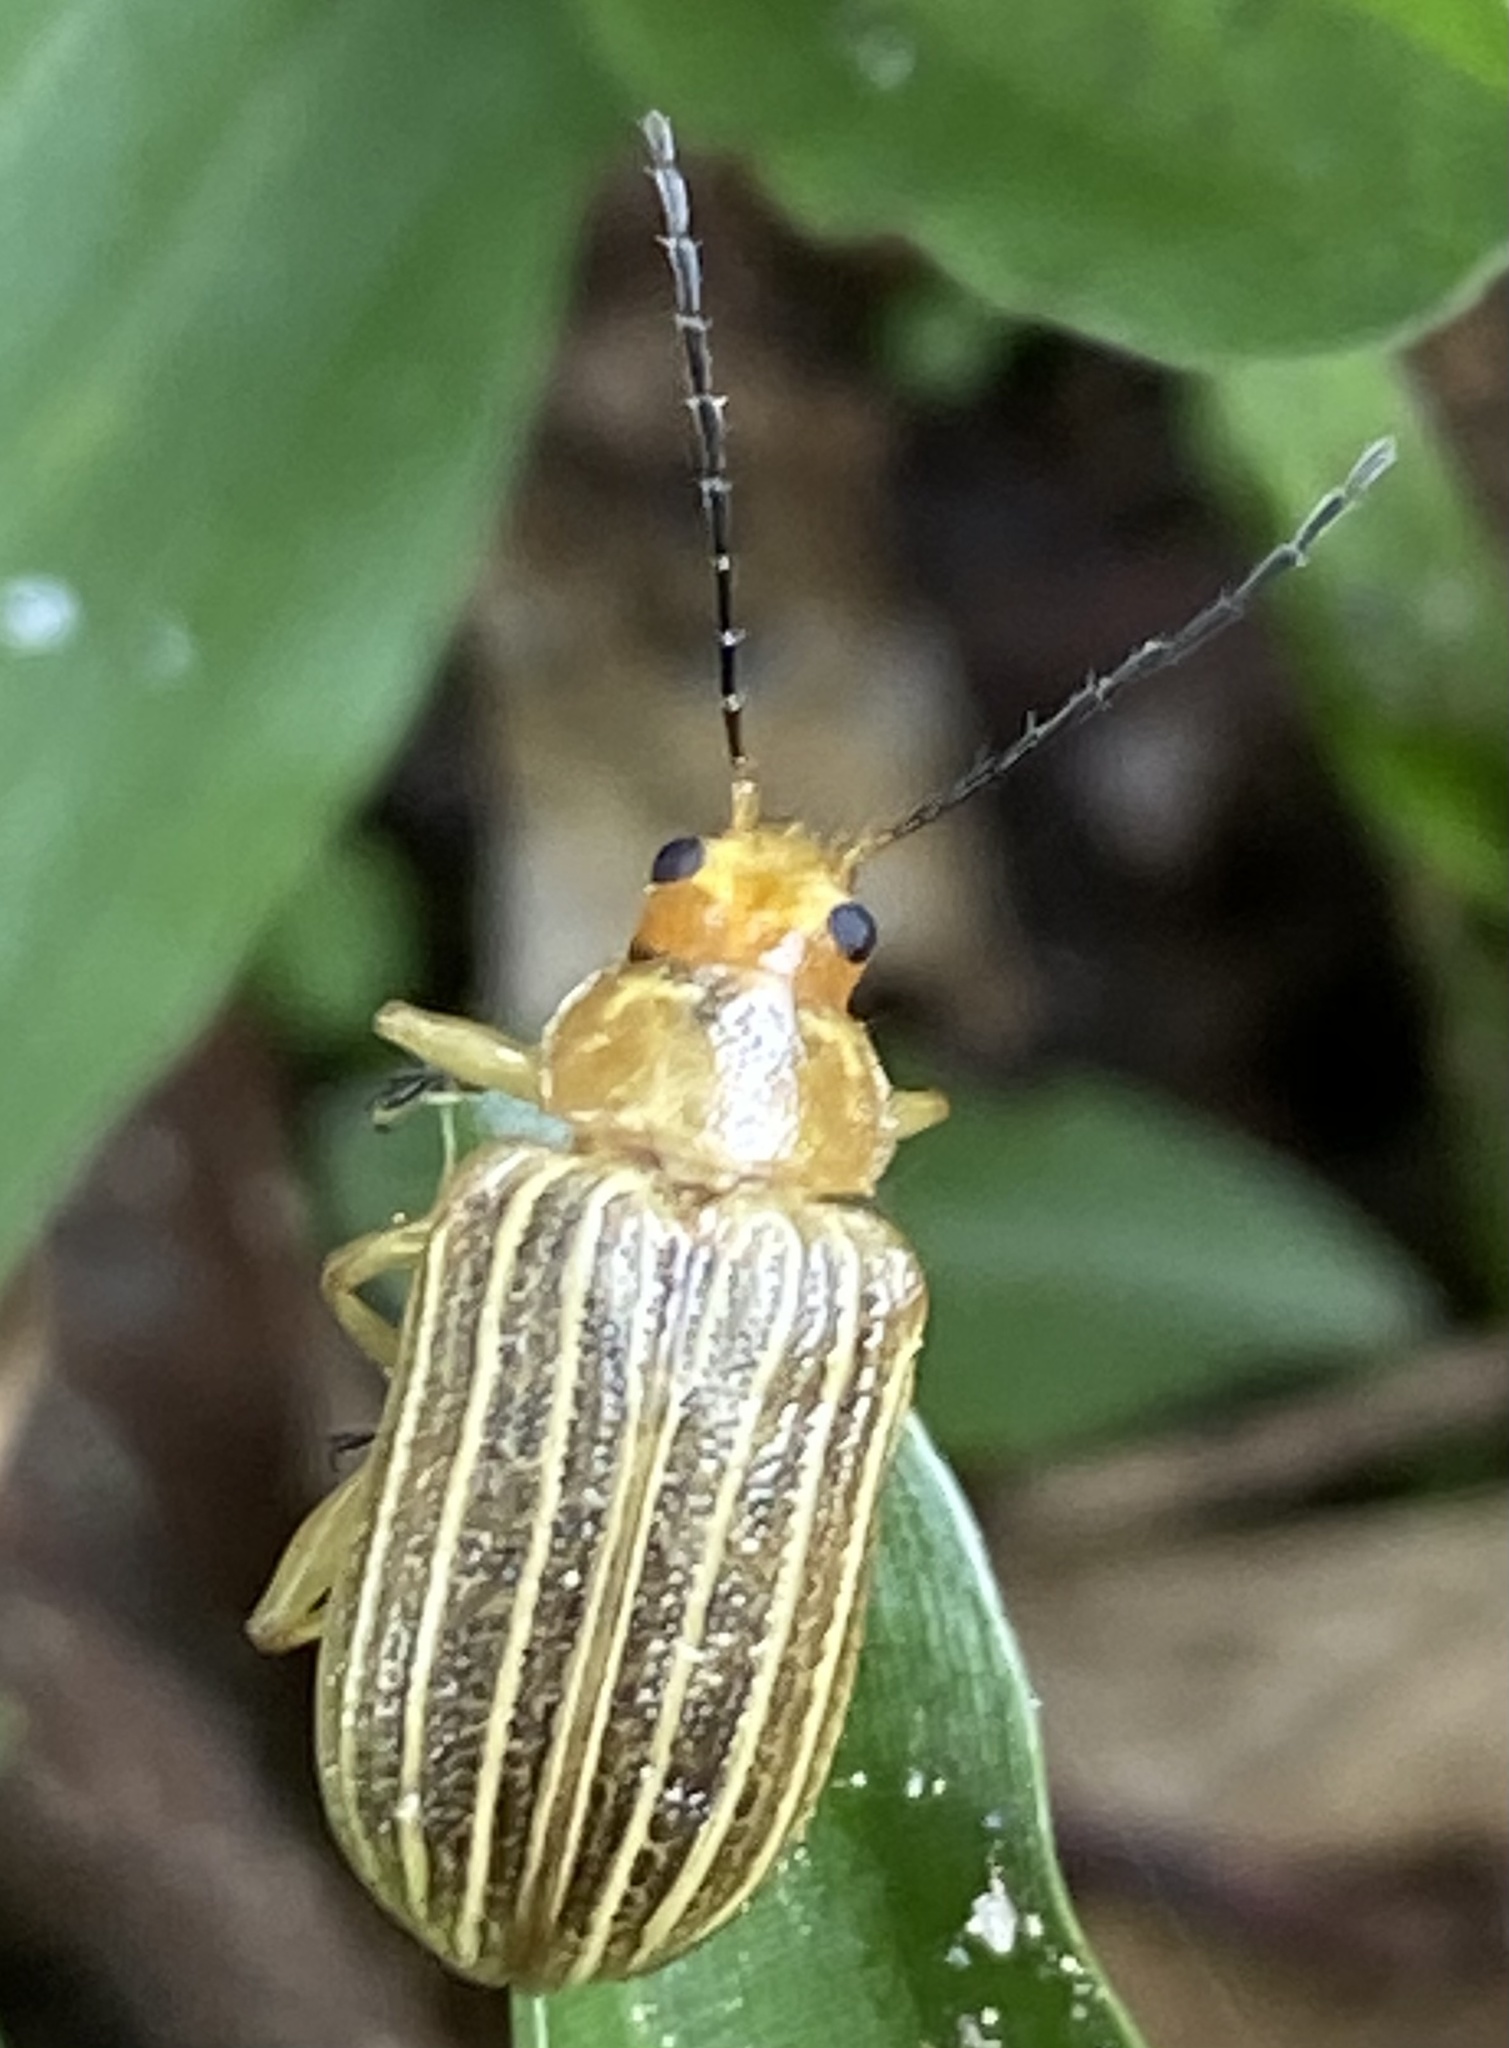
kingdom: Animalia
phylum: Arthropoda
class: Insecta
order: Coleoptera
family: Chrysomelidae
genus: Metaxyonycha
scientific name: Metaxyonycha
